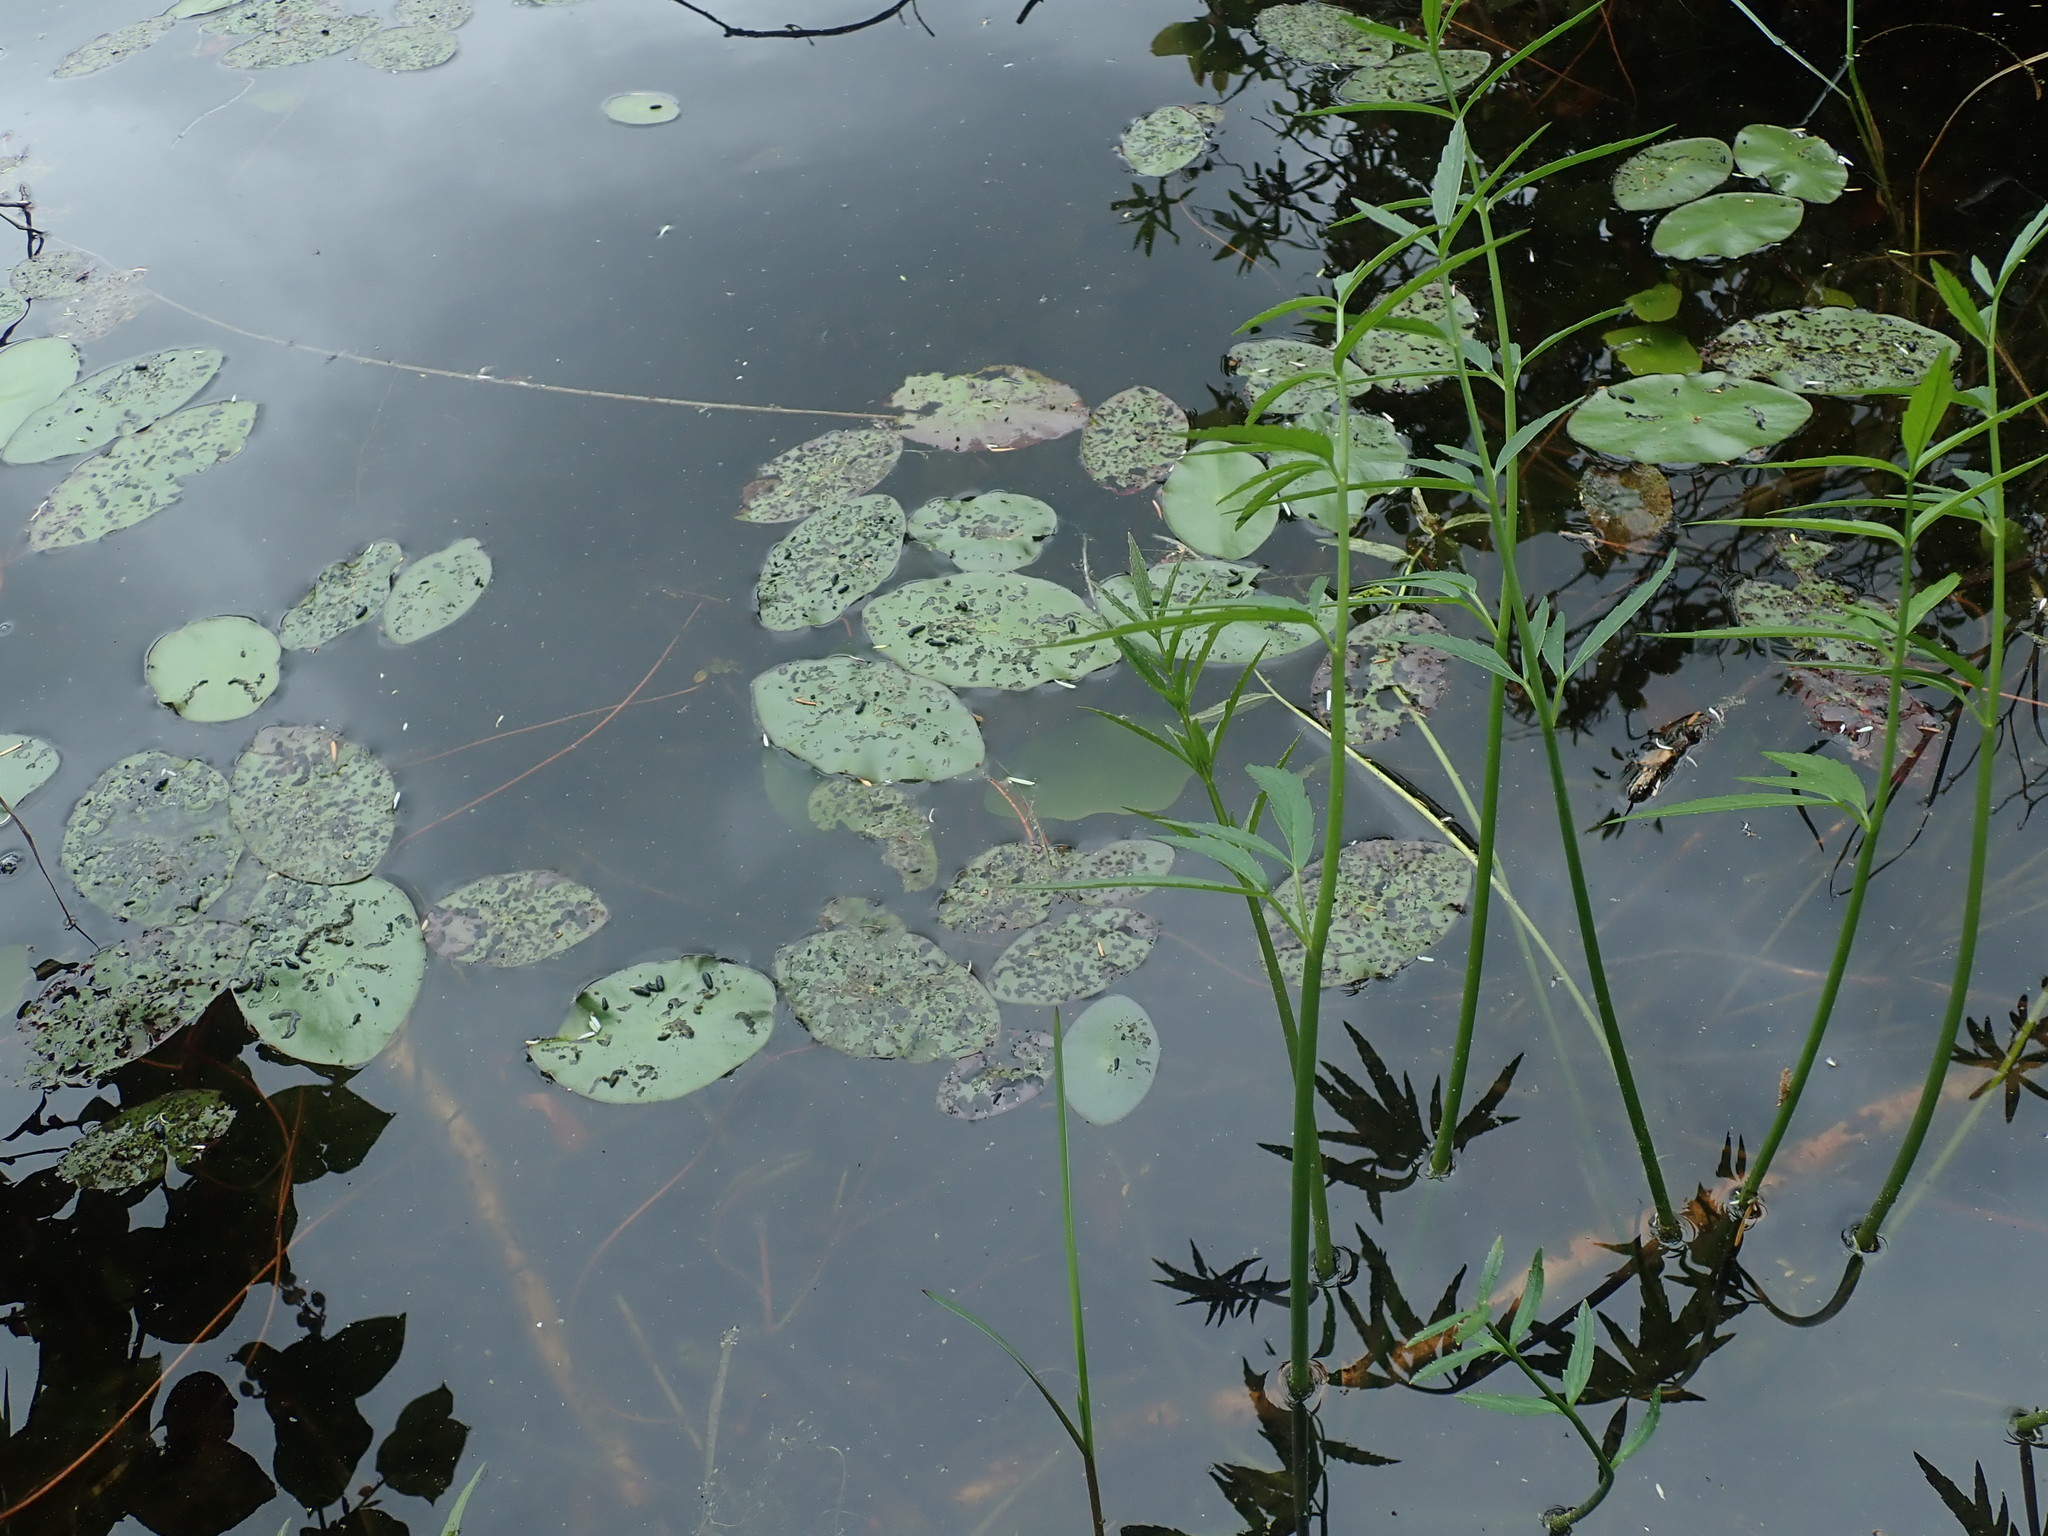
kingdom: Plantae
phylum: Tracheophyta
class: Magnoliopsida
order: Nymphaeales
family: Cabombaceae
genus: Brasenia
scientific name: Brasenia schreberi
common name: Water-shield
